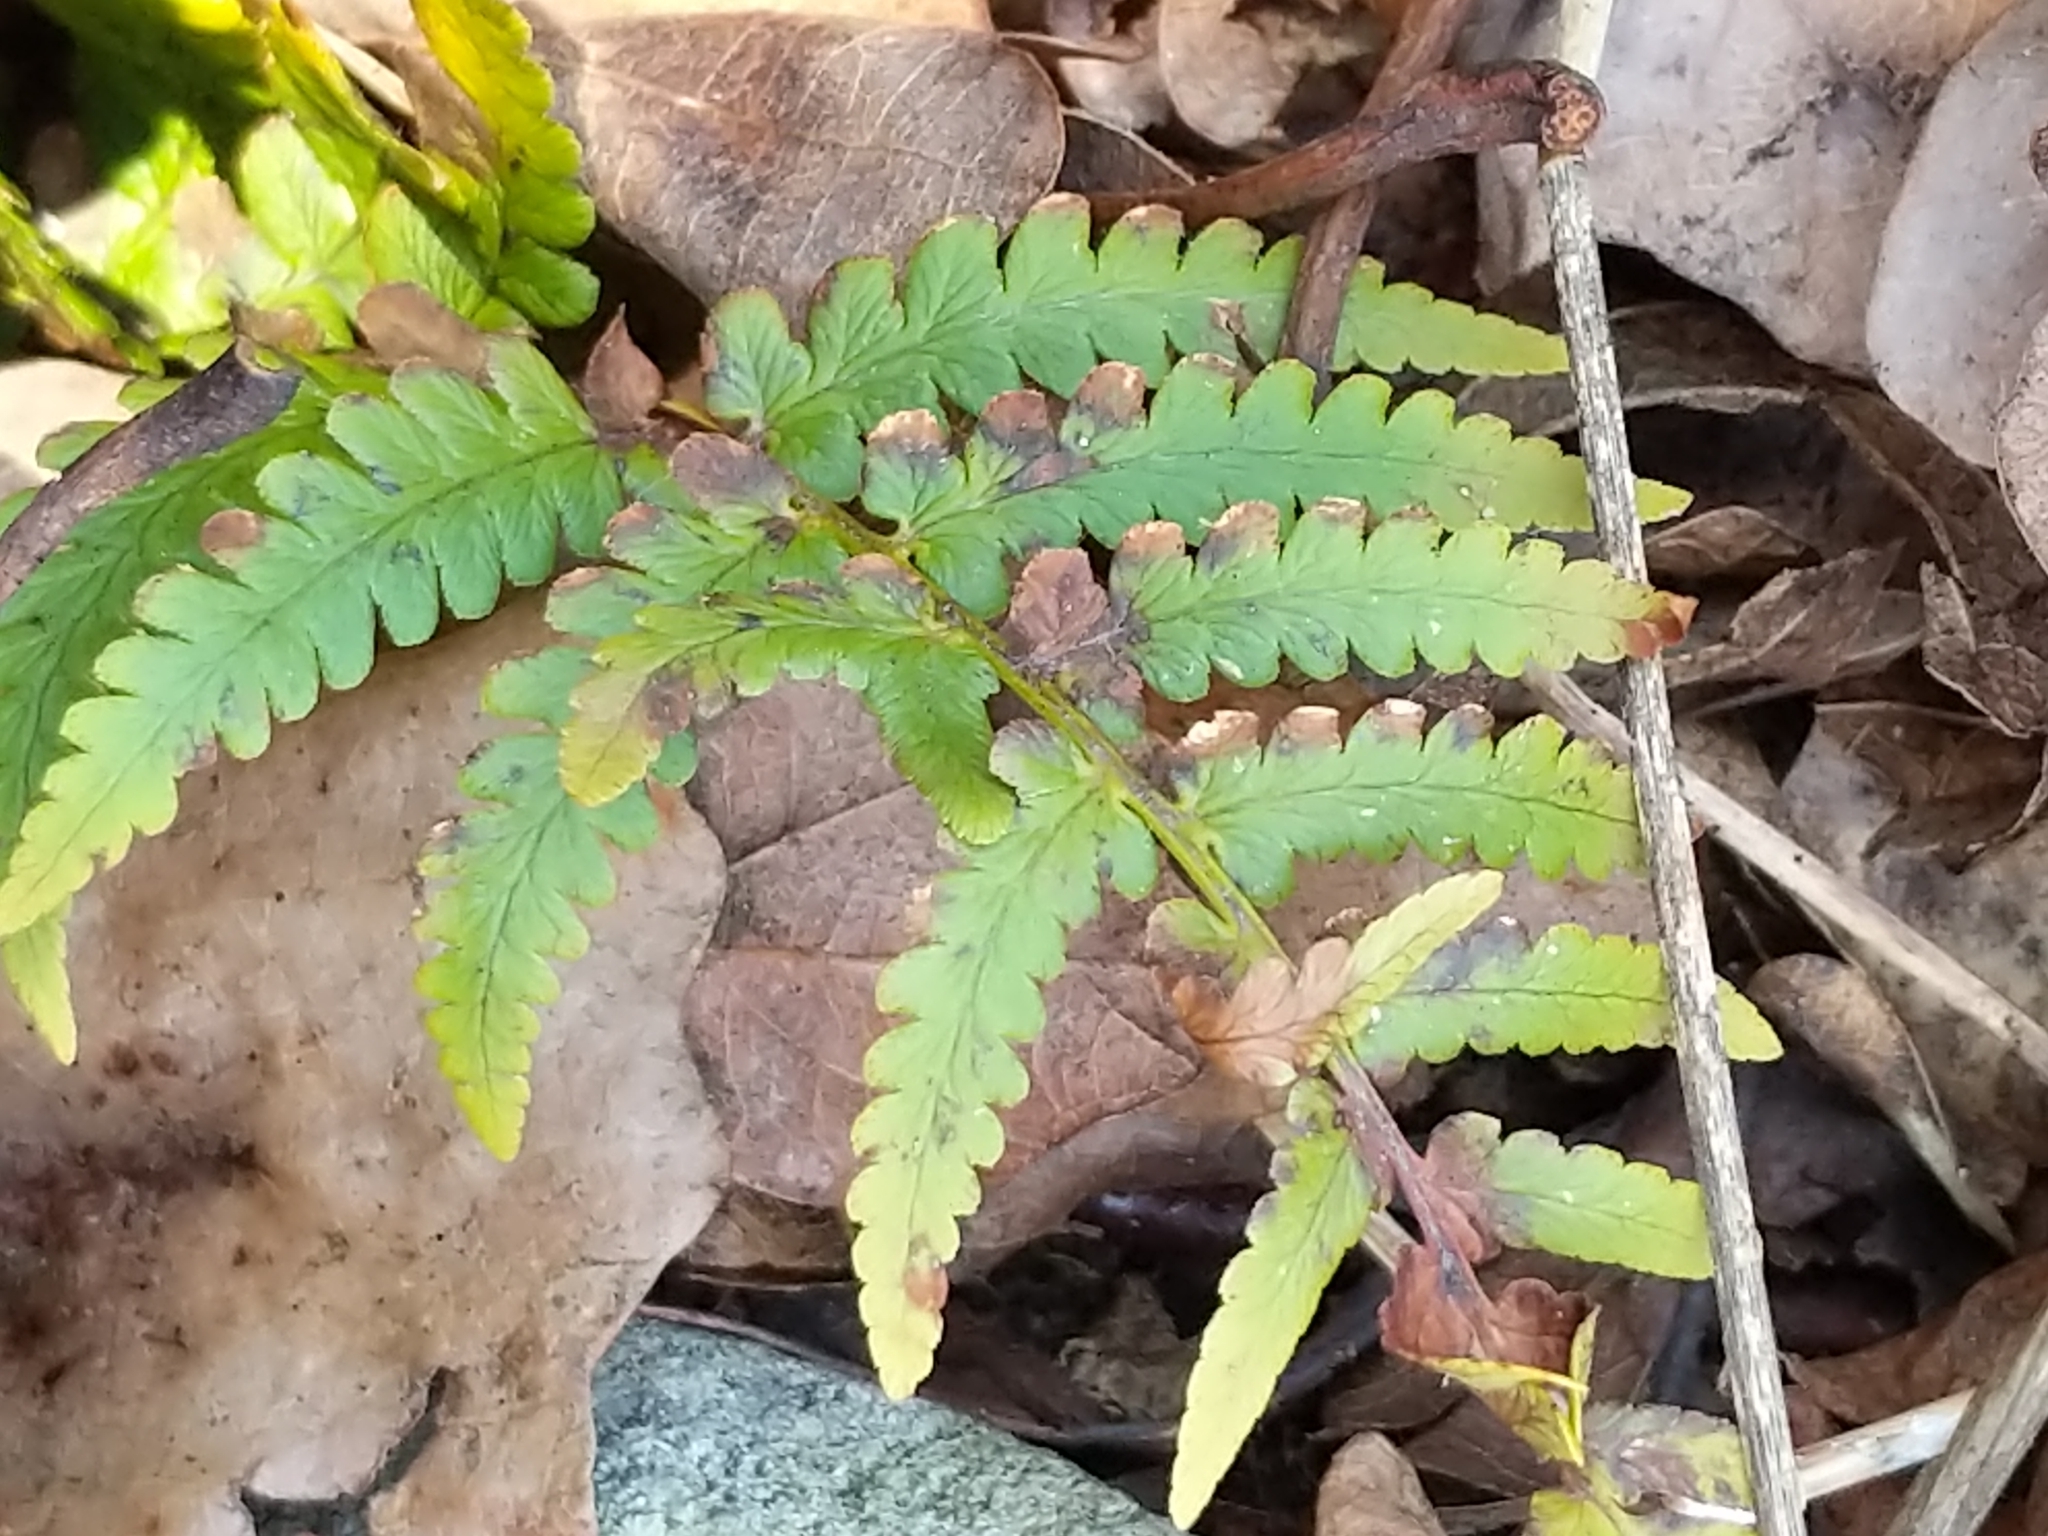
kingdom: Plantae
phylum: Tracheophyta
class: Polypodiopsida
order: Polypodiales
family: Dryopteridaceae
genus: Dryopteris
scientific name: Dryopteris marginalis
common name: Marginal wood fern
